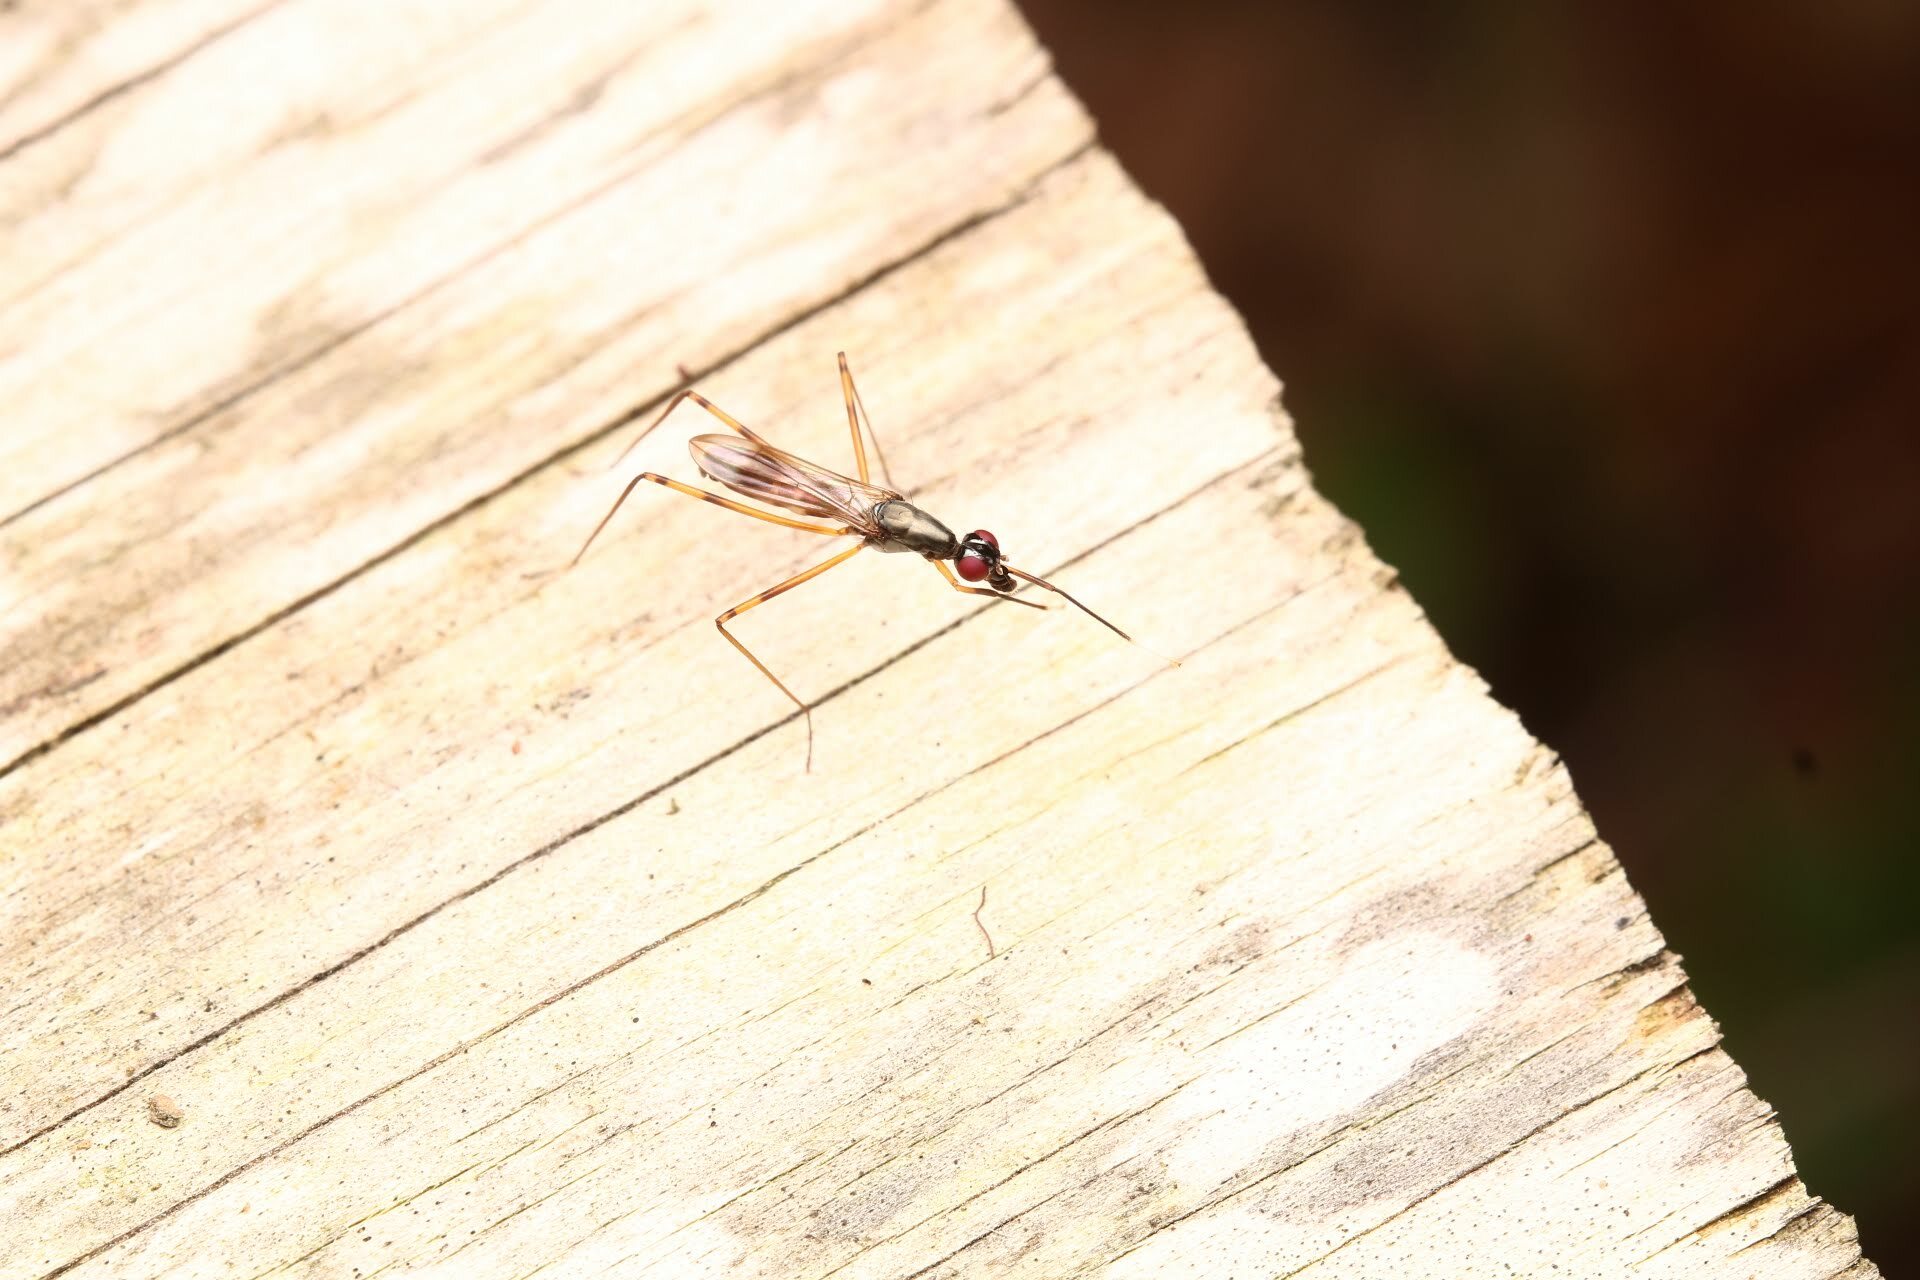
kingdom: Animalia
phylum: Arthropoda
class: Insecta
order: Diptera
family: Micropezidae
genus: Rainieria
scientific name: Rainieria antennaepes
